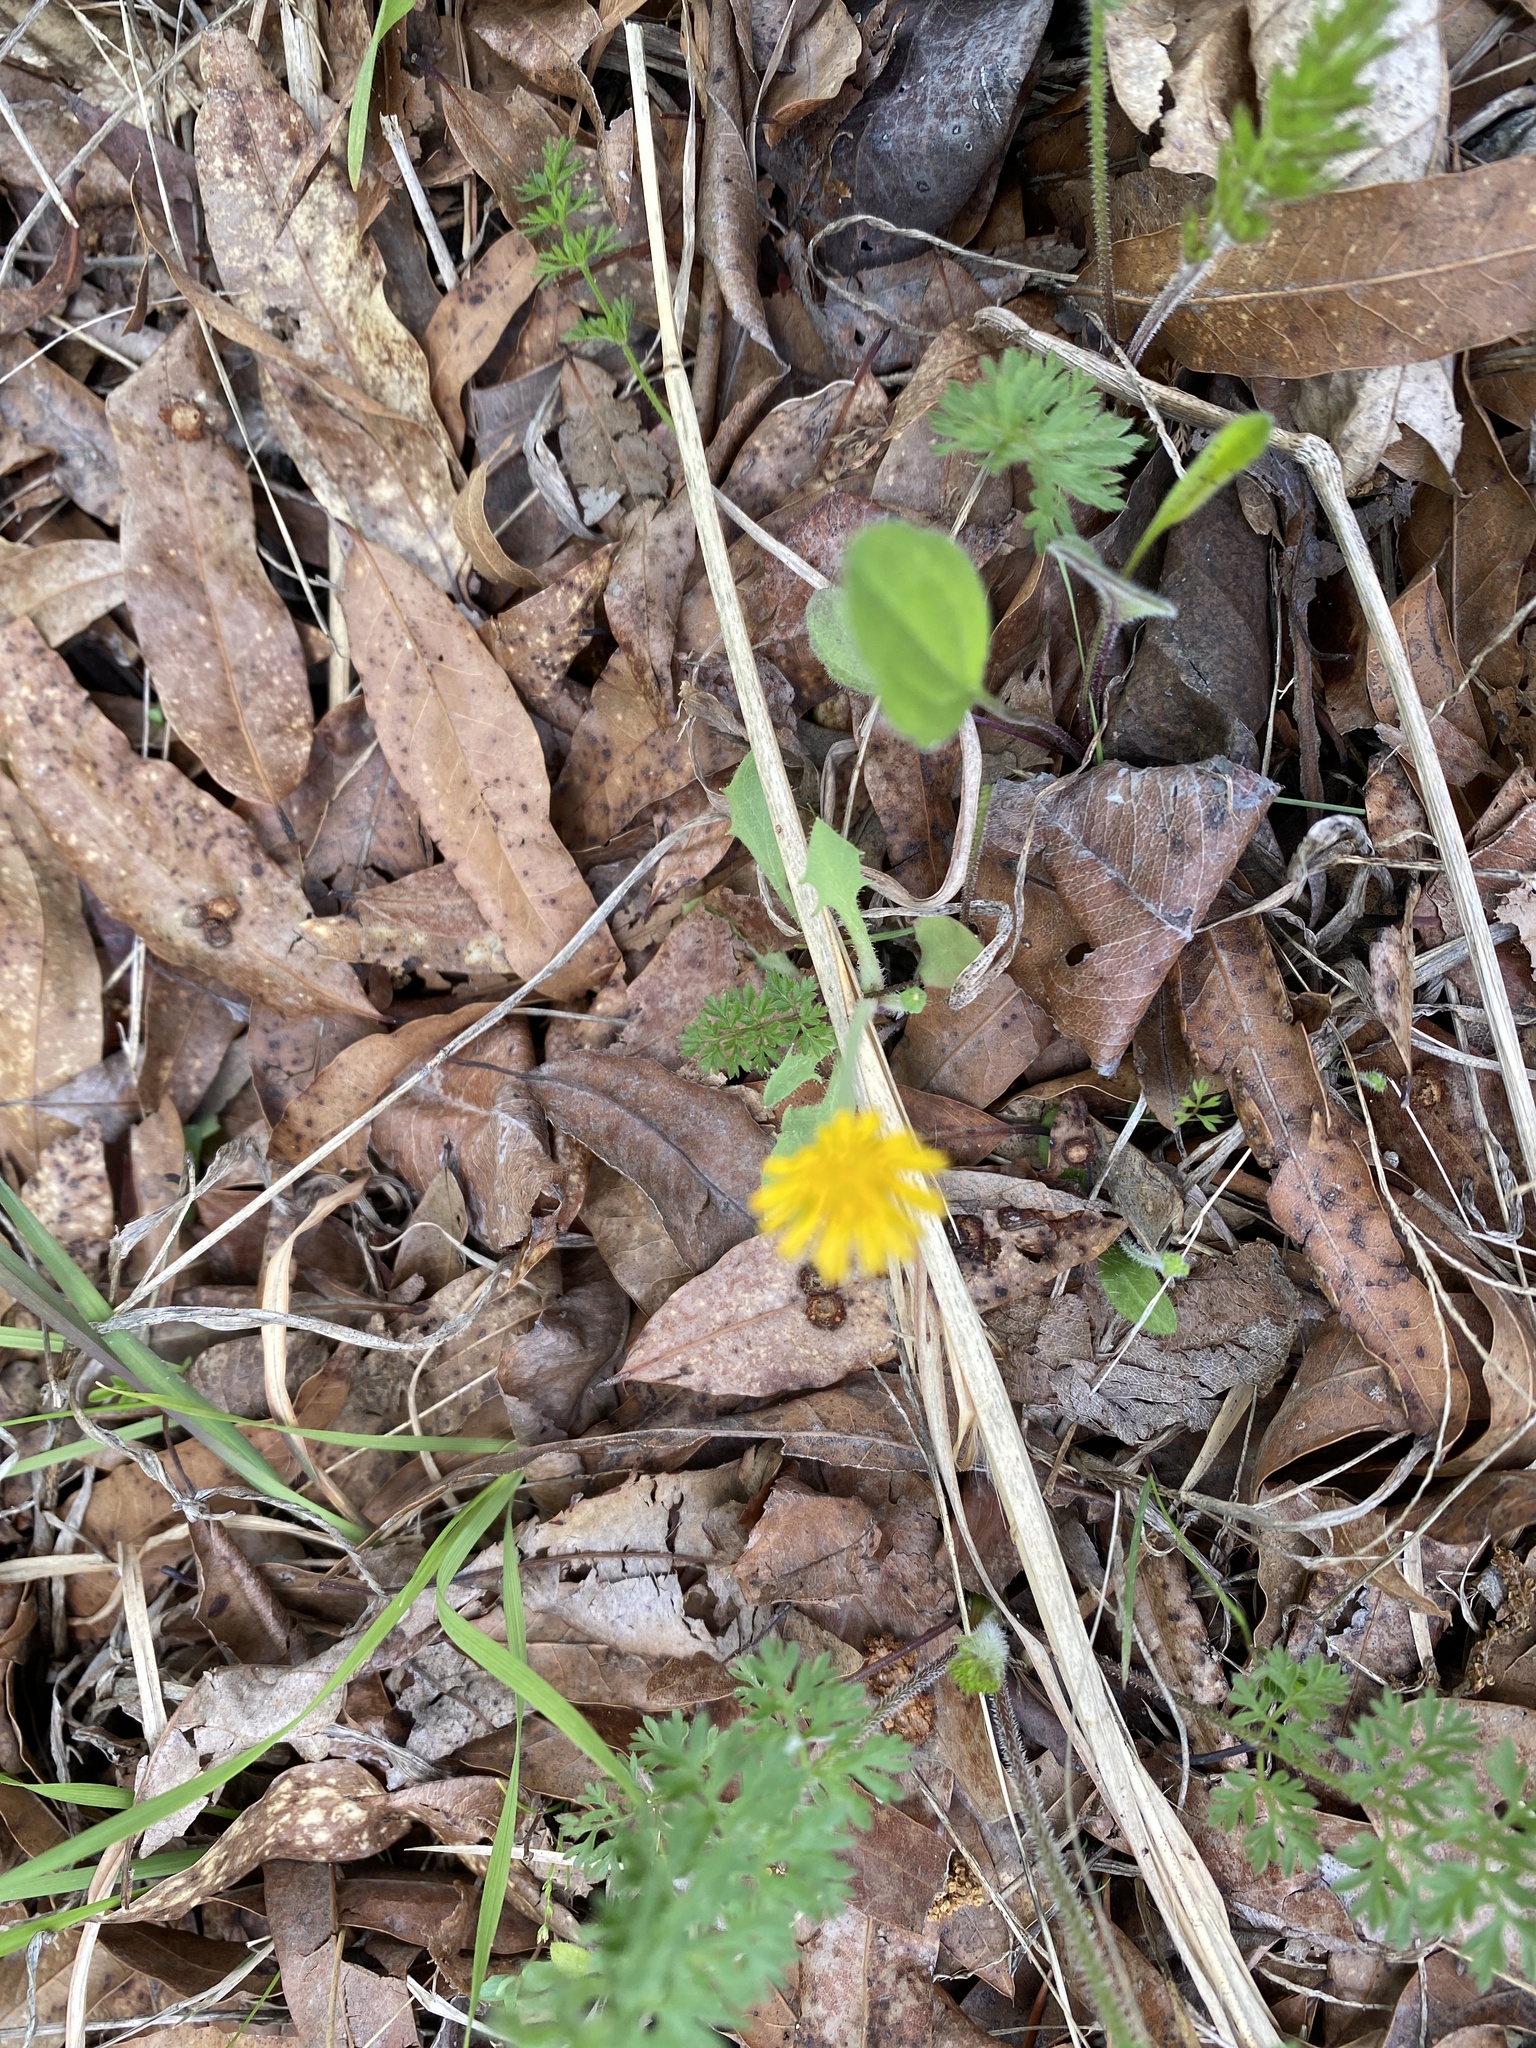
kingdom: Plantae
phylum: Tracheophyta
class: Magnoliopsida
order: Asterales
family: Asteraceae
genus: Krigia
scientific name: Krigia virginica
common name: Virginia dwarf-dandelion
